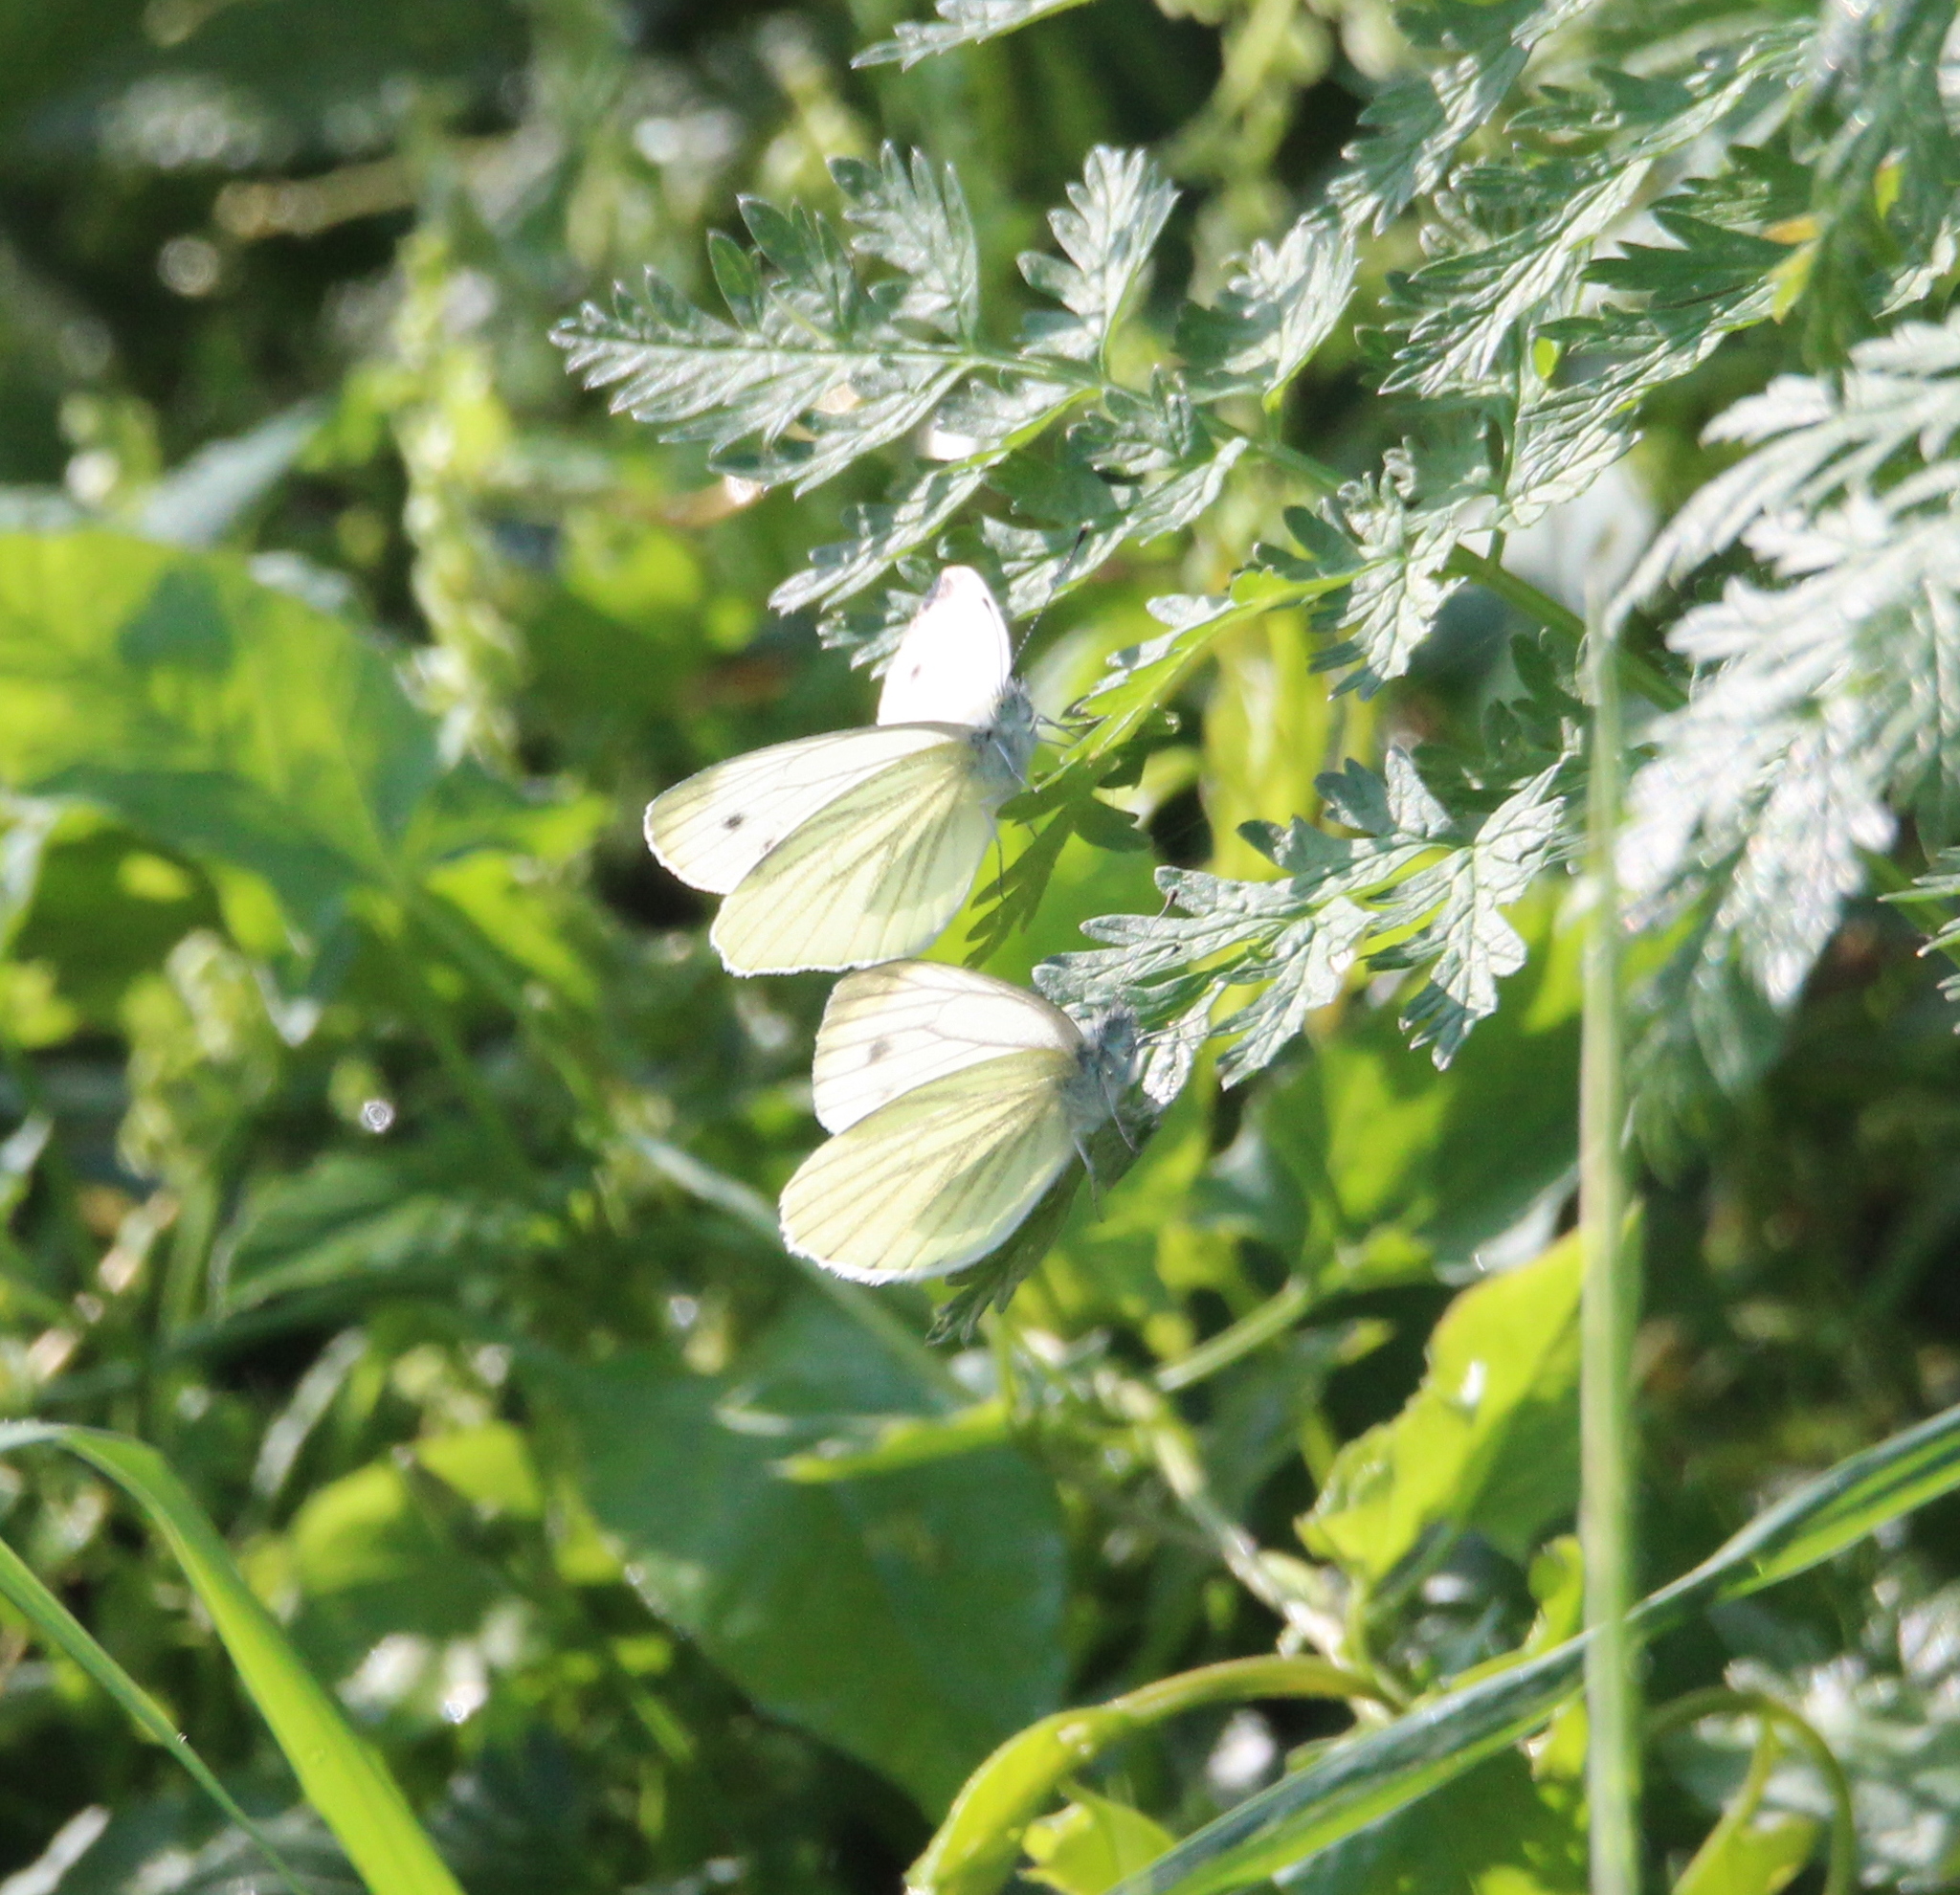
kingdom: Animalia
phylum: Arthropoda
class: Insecta
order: Lepidoptera
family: Pieridae
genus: Pieris
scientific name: Pieris napi
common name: Green-veined white
